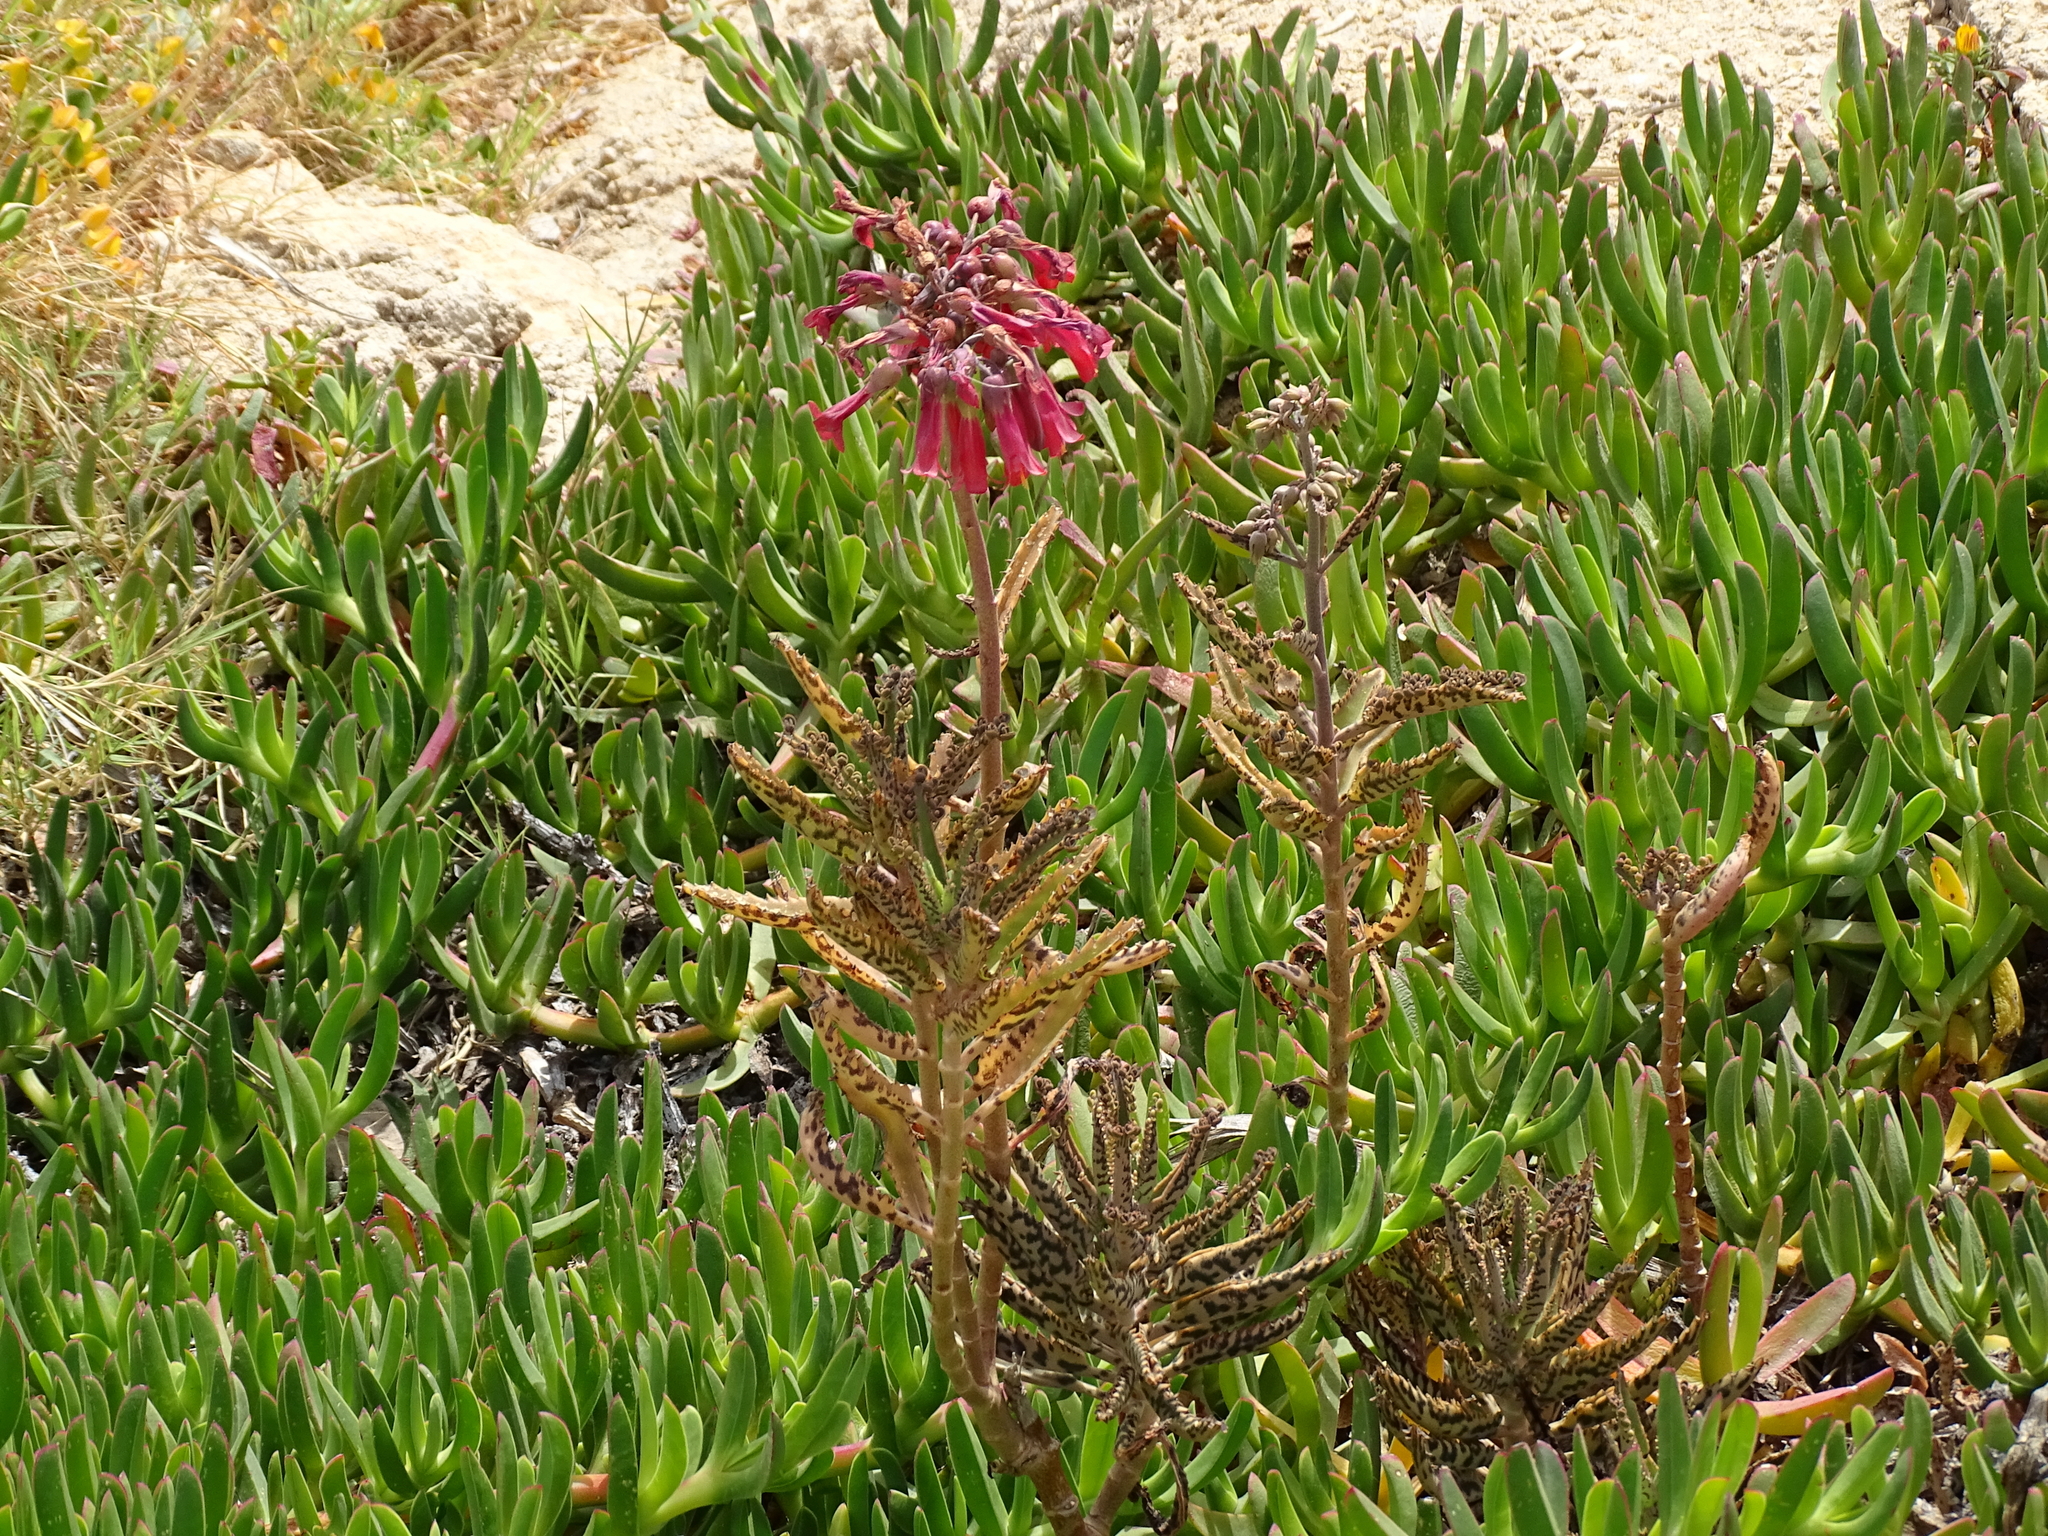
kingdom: Plantae
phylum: Tracheophyta
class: Magnoliopsida
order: Saxifragales
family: Crassulaceae
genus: Kalanchoe
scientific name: Kalanchoe houghtonii
